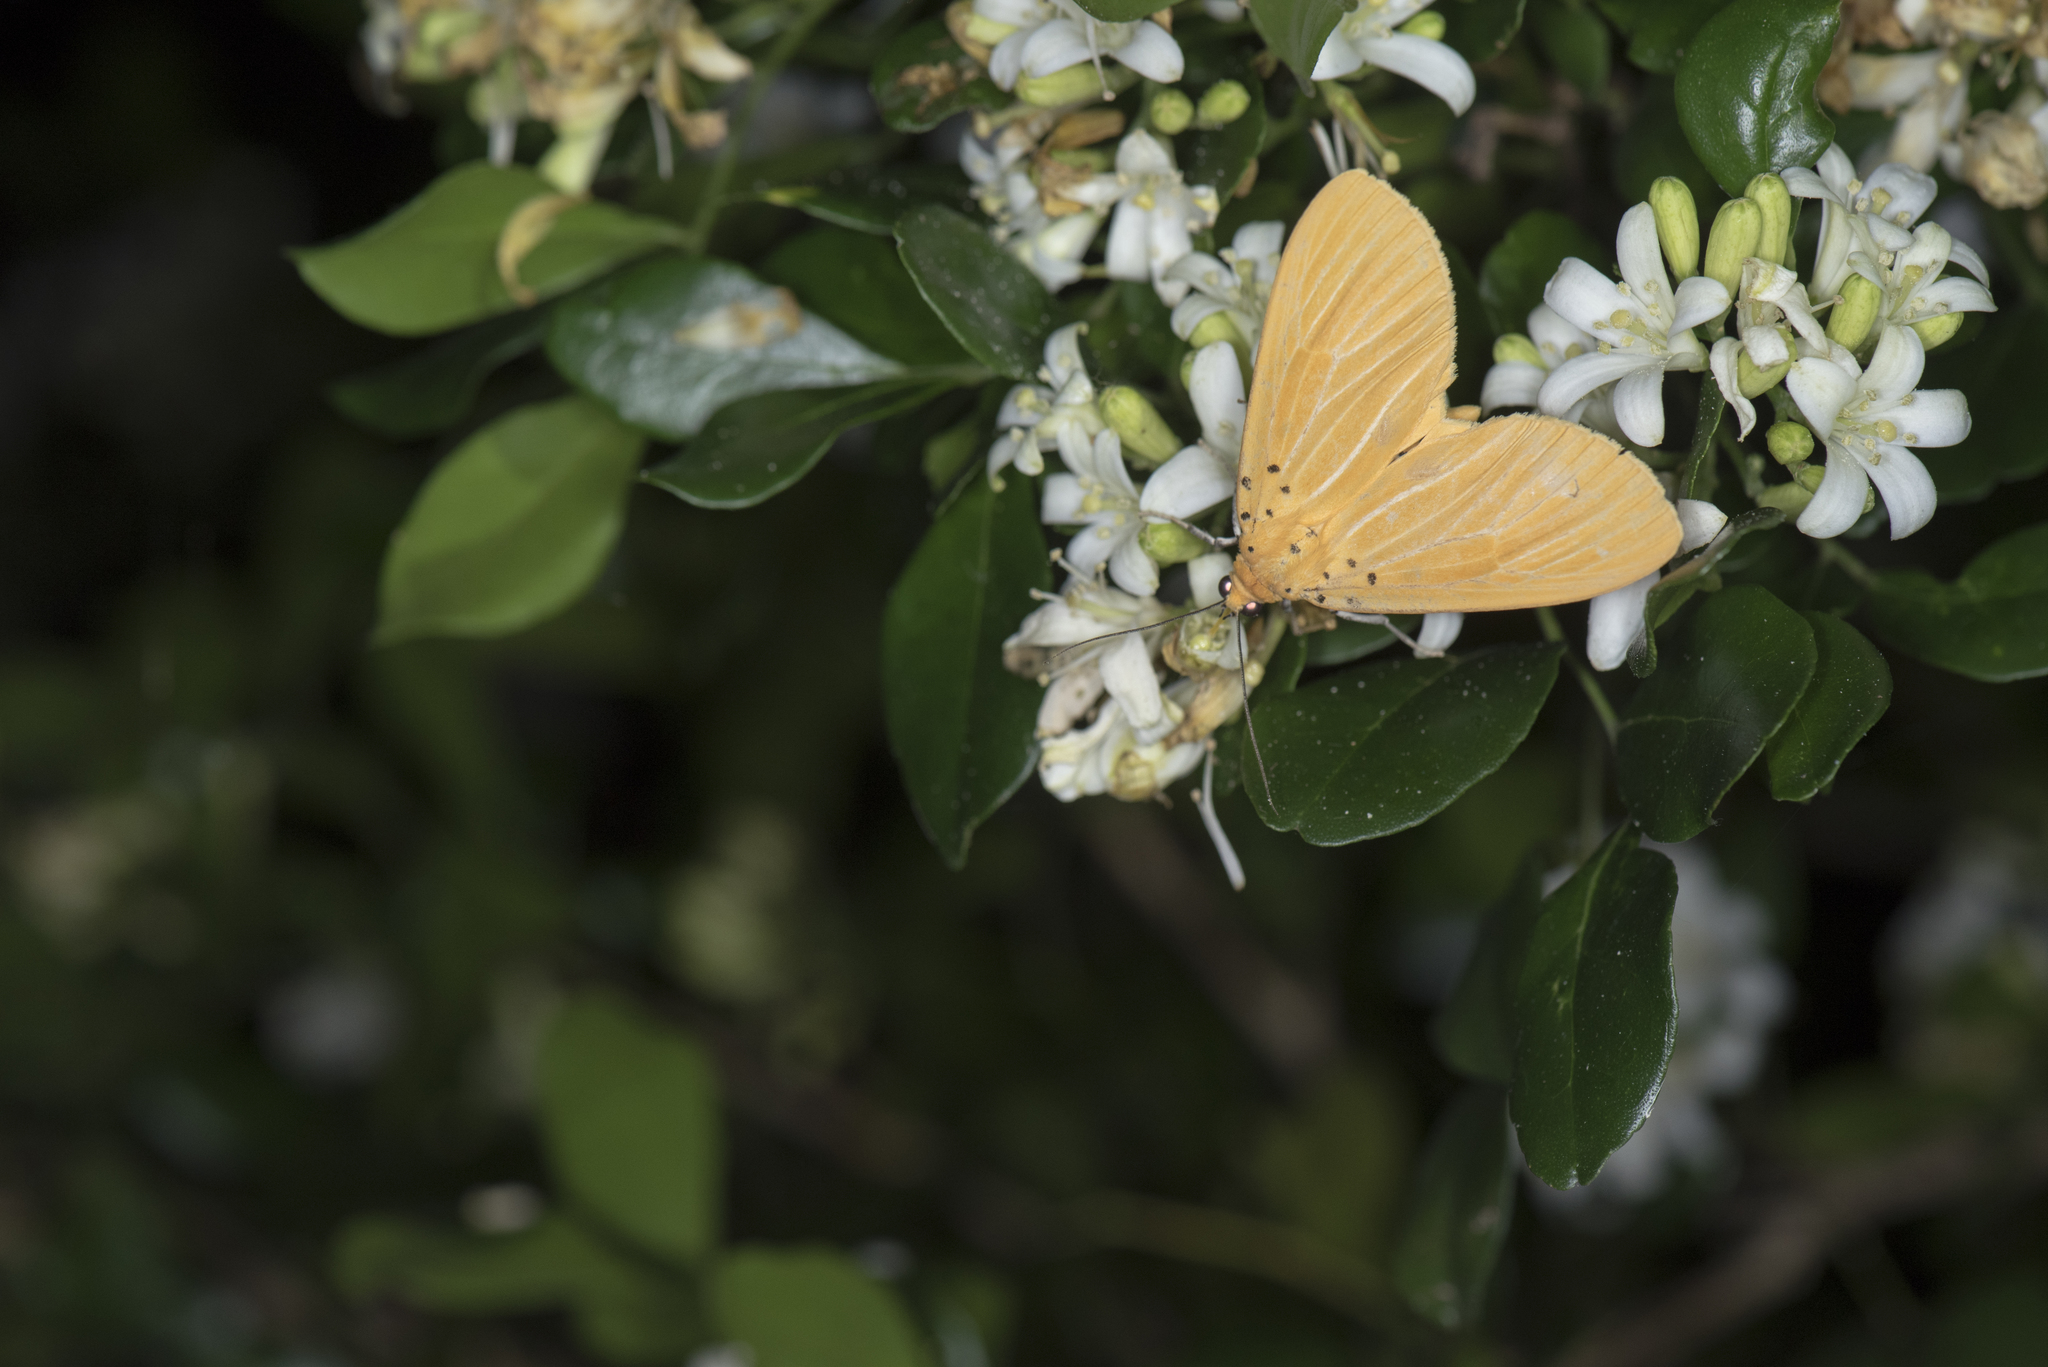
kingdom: Animalia
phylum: Arthropoda
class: Insecta
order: Lepidoptera
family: Erebidae
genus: Asota
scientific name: Asota egens
